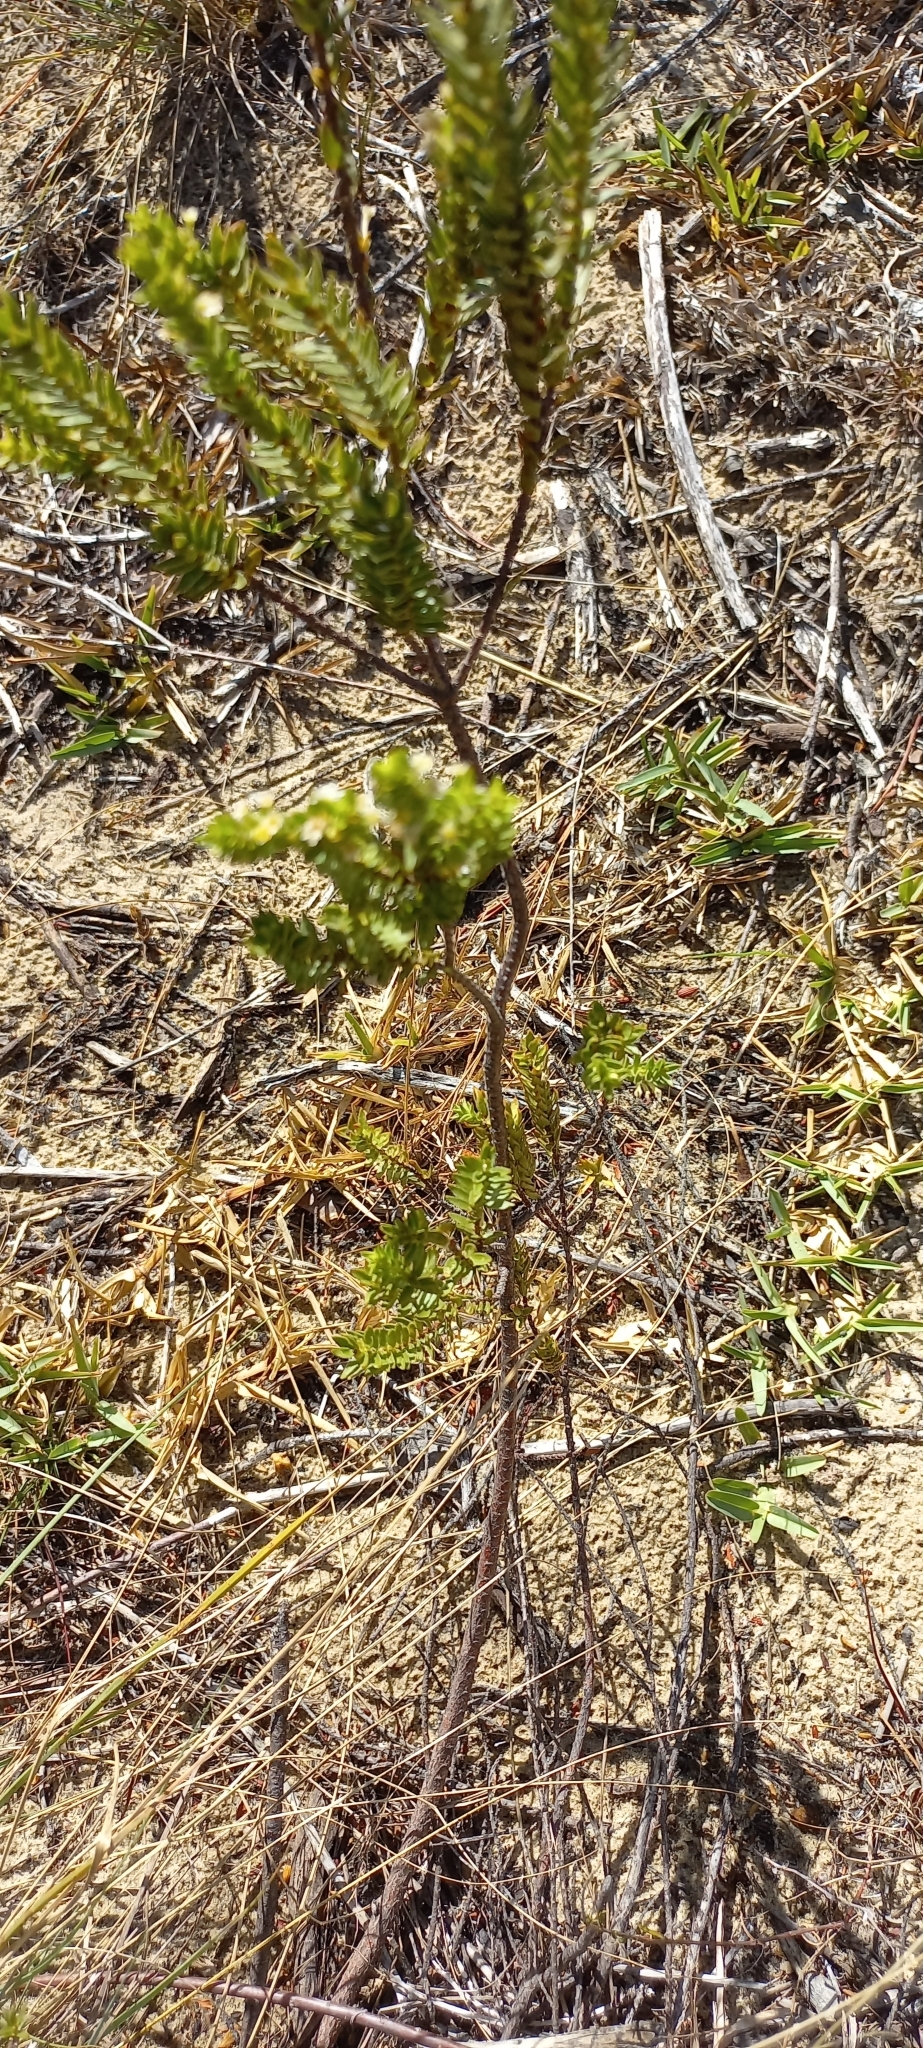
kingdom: Plantae
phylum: Tracheophyta
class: Magnoliopsida
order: Malvales
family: Thymelaeaceae
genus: Struthiola
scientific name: Struthiola striata
